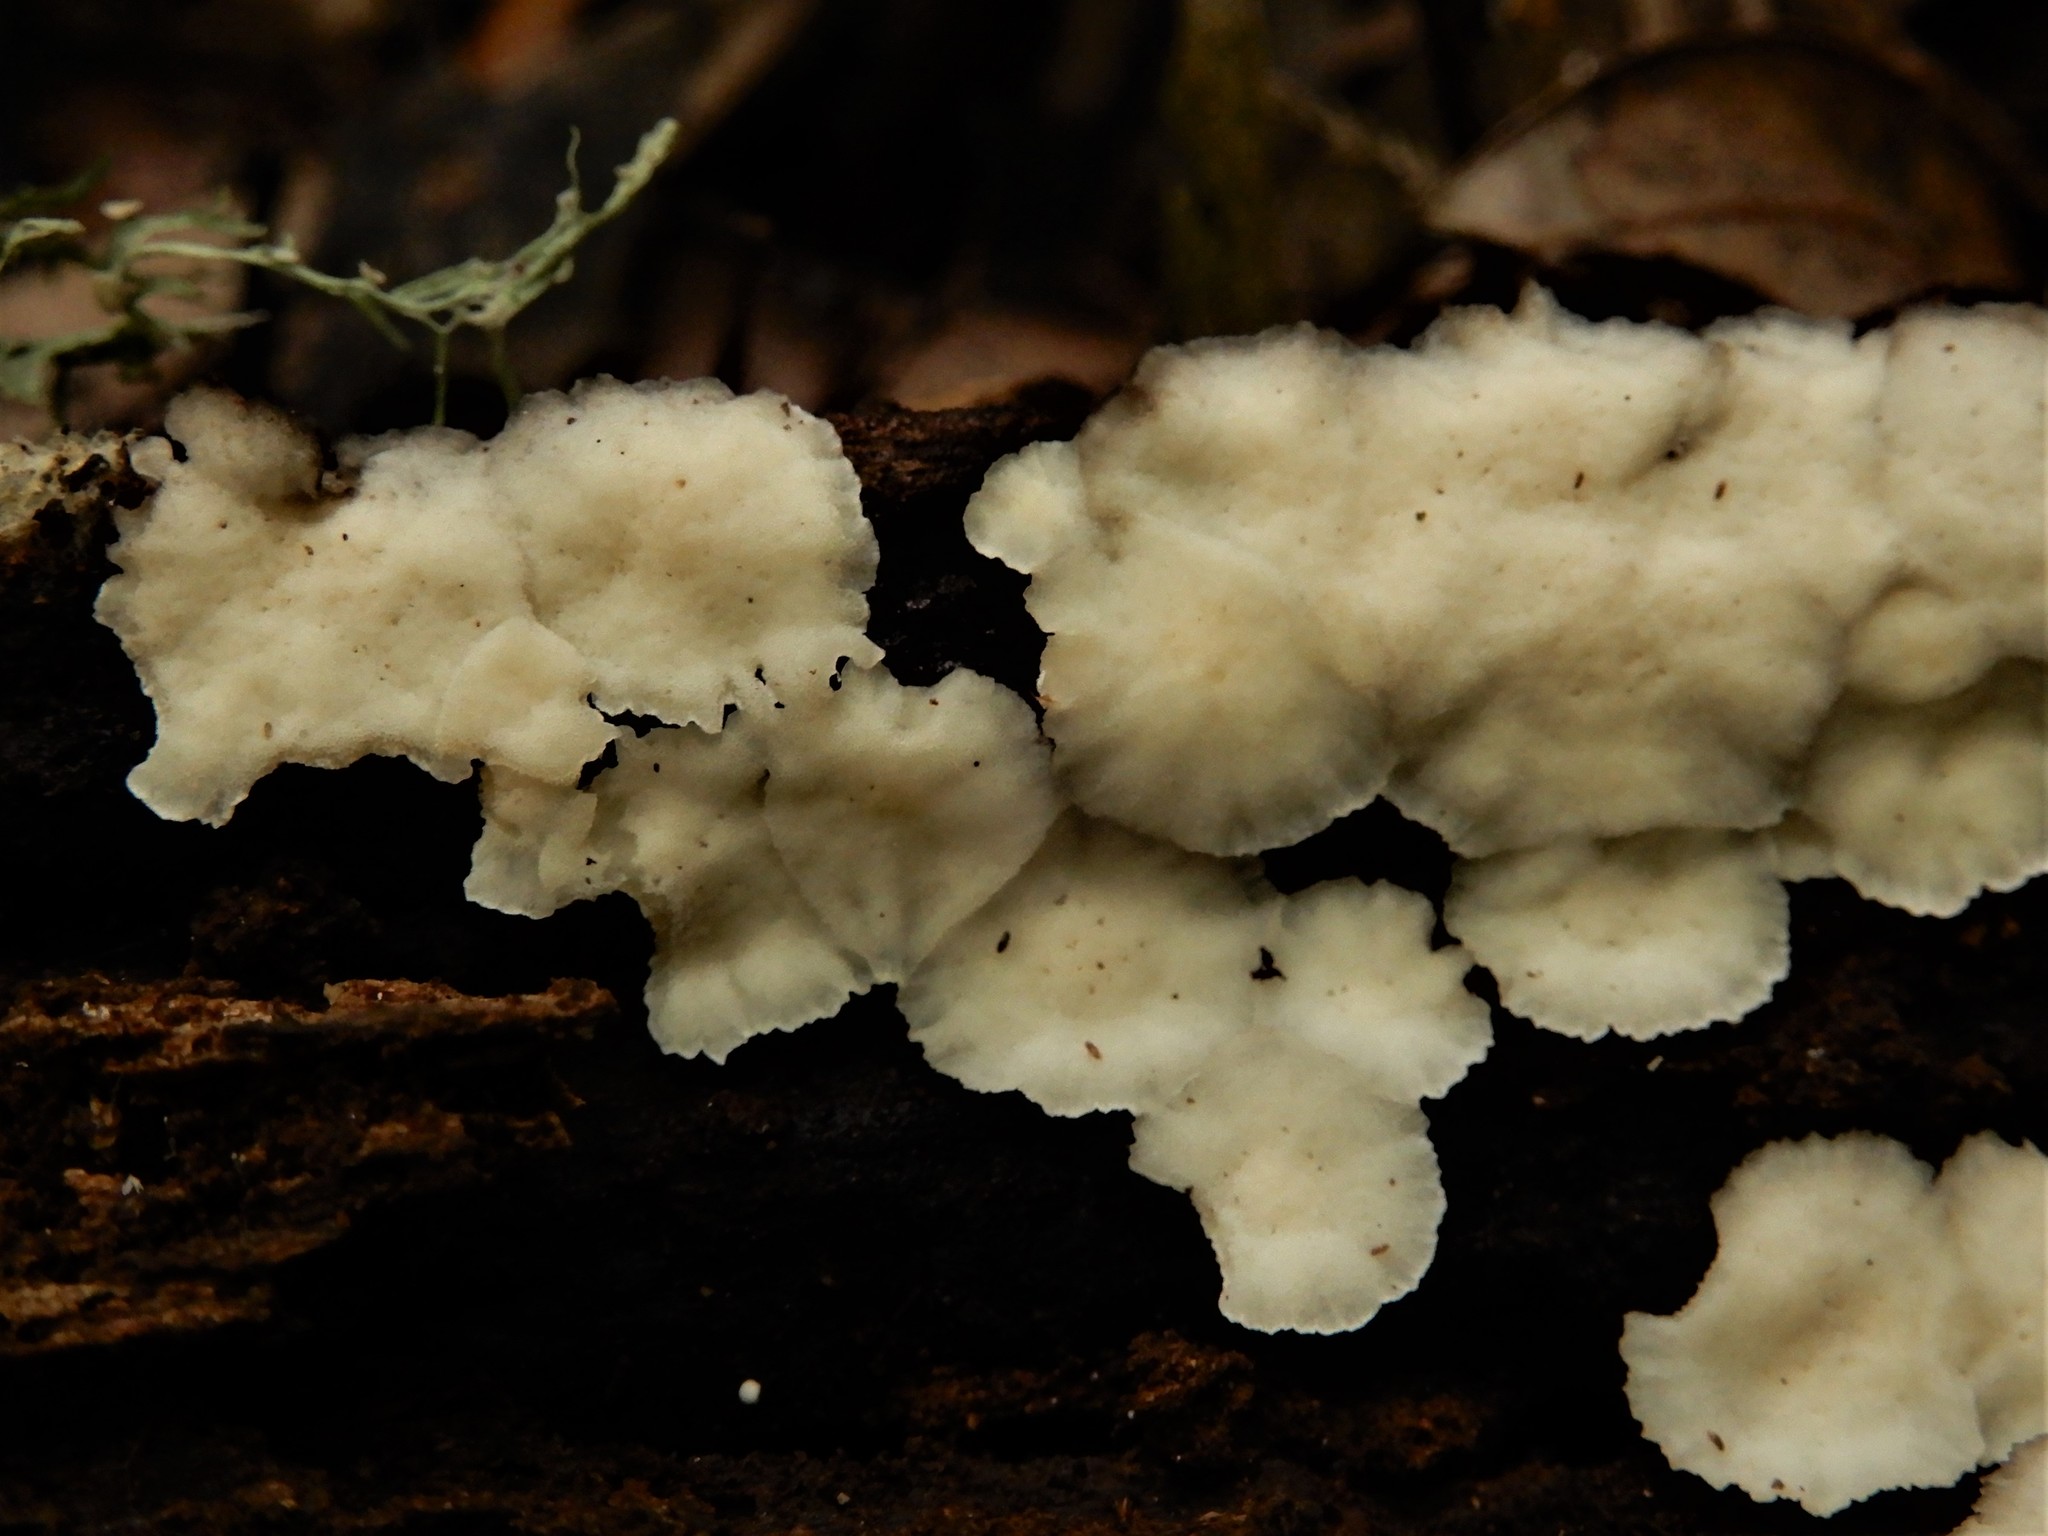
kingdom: Fungi
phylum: Basidiomycota
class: Agaricomycetes
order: Polyporales
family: Meripilaceae
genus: Rigidoporus
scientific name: Rigidoporus microporus
